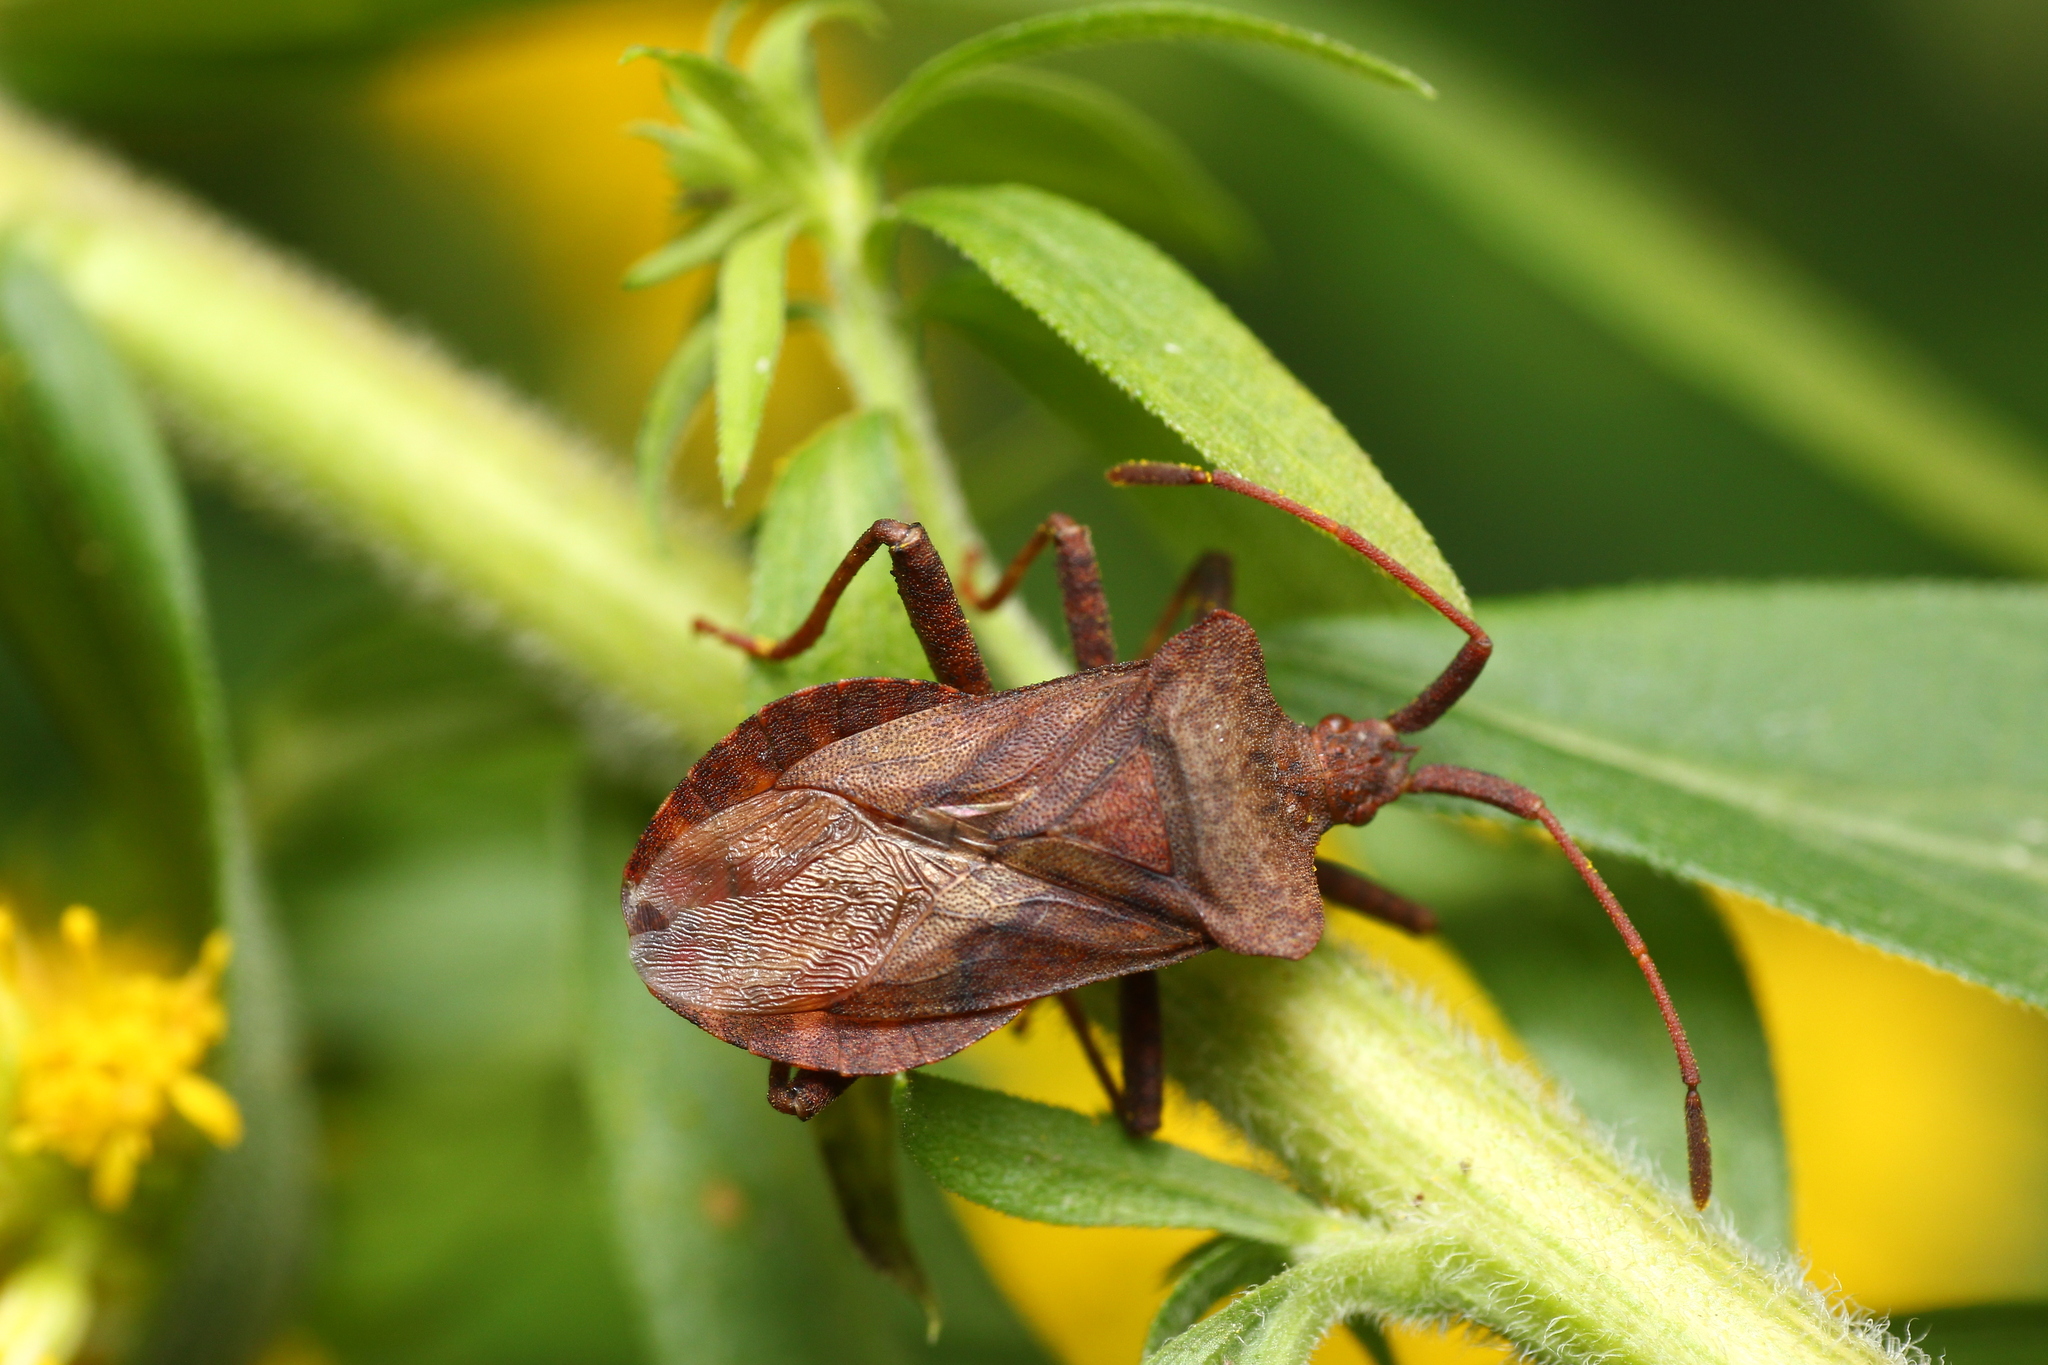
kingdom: Animalia
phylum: Arthropoda
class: Insecta
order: Hemiptera
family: Coreidae
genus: Coreus
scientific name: Coreus marginatus
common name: Dock bug
